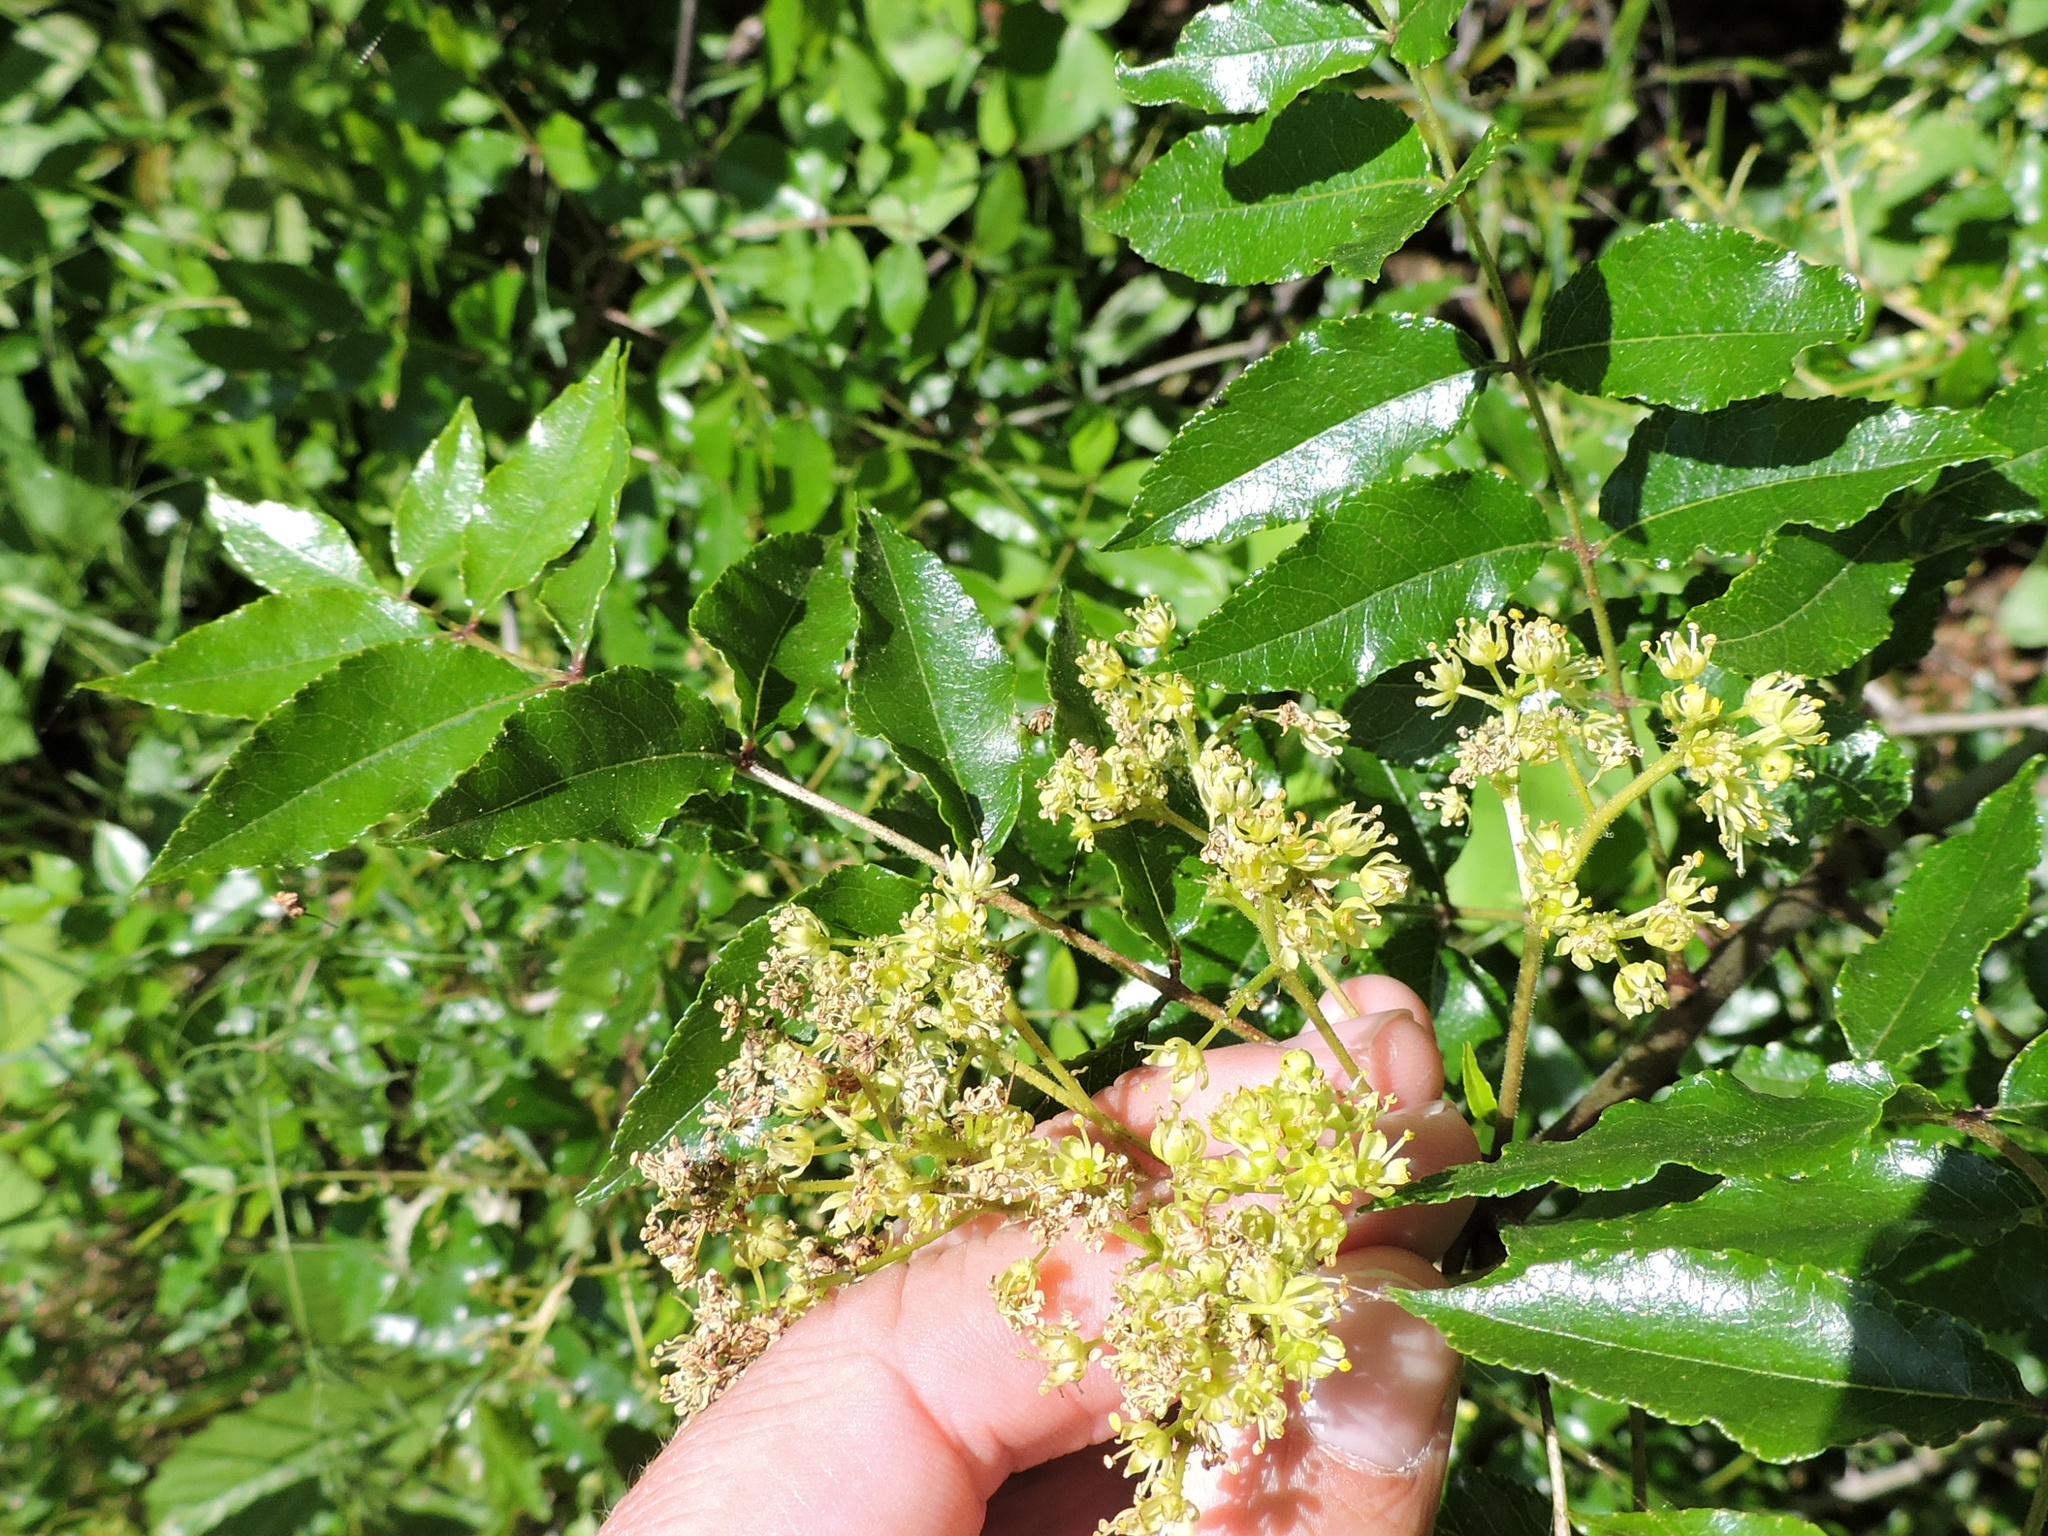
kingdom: Plantae
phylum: Tracheophyta
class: Magnoliopsida
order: Sapindales
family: Rutaceae
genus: Zanthoxylum
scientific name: Zanthoxylum clava-herculis
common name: Hercules'-club
